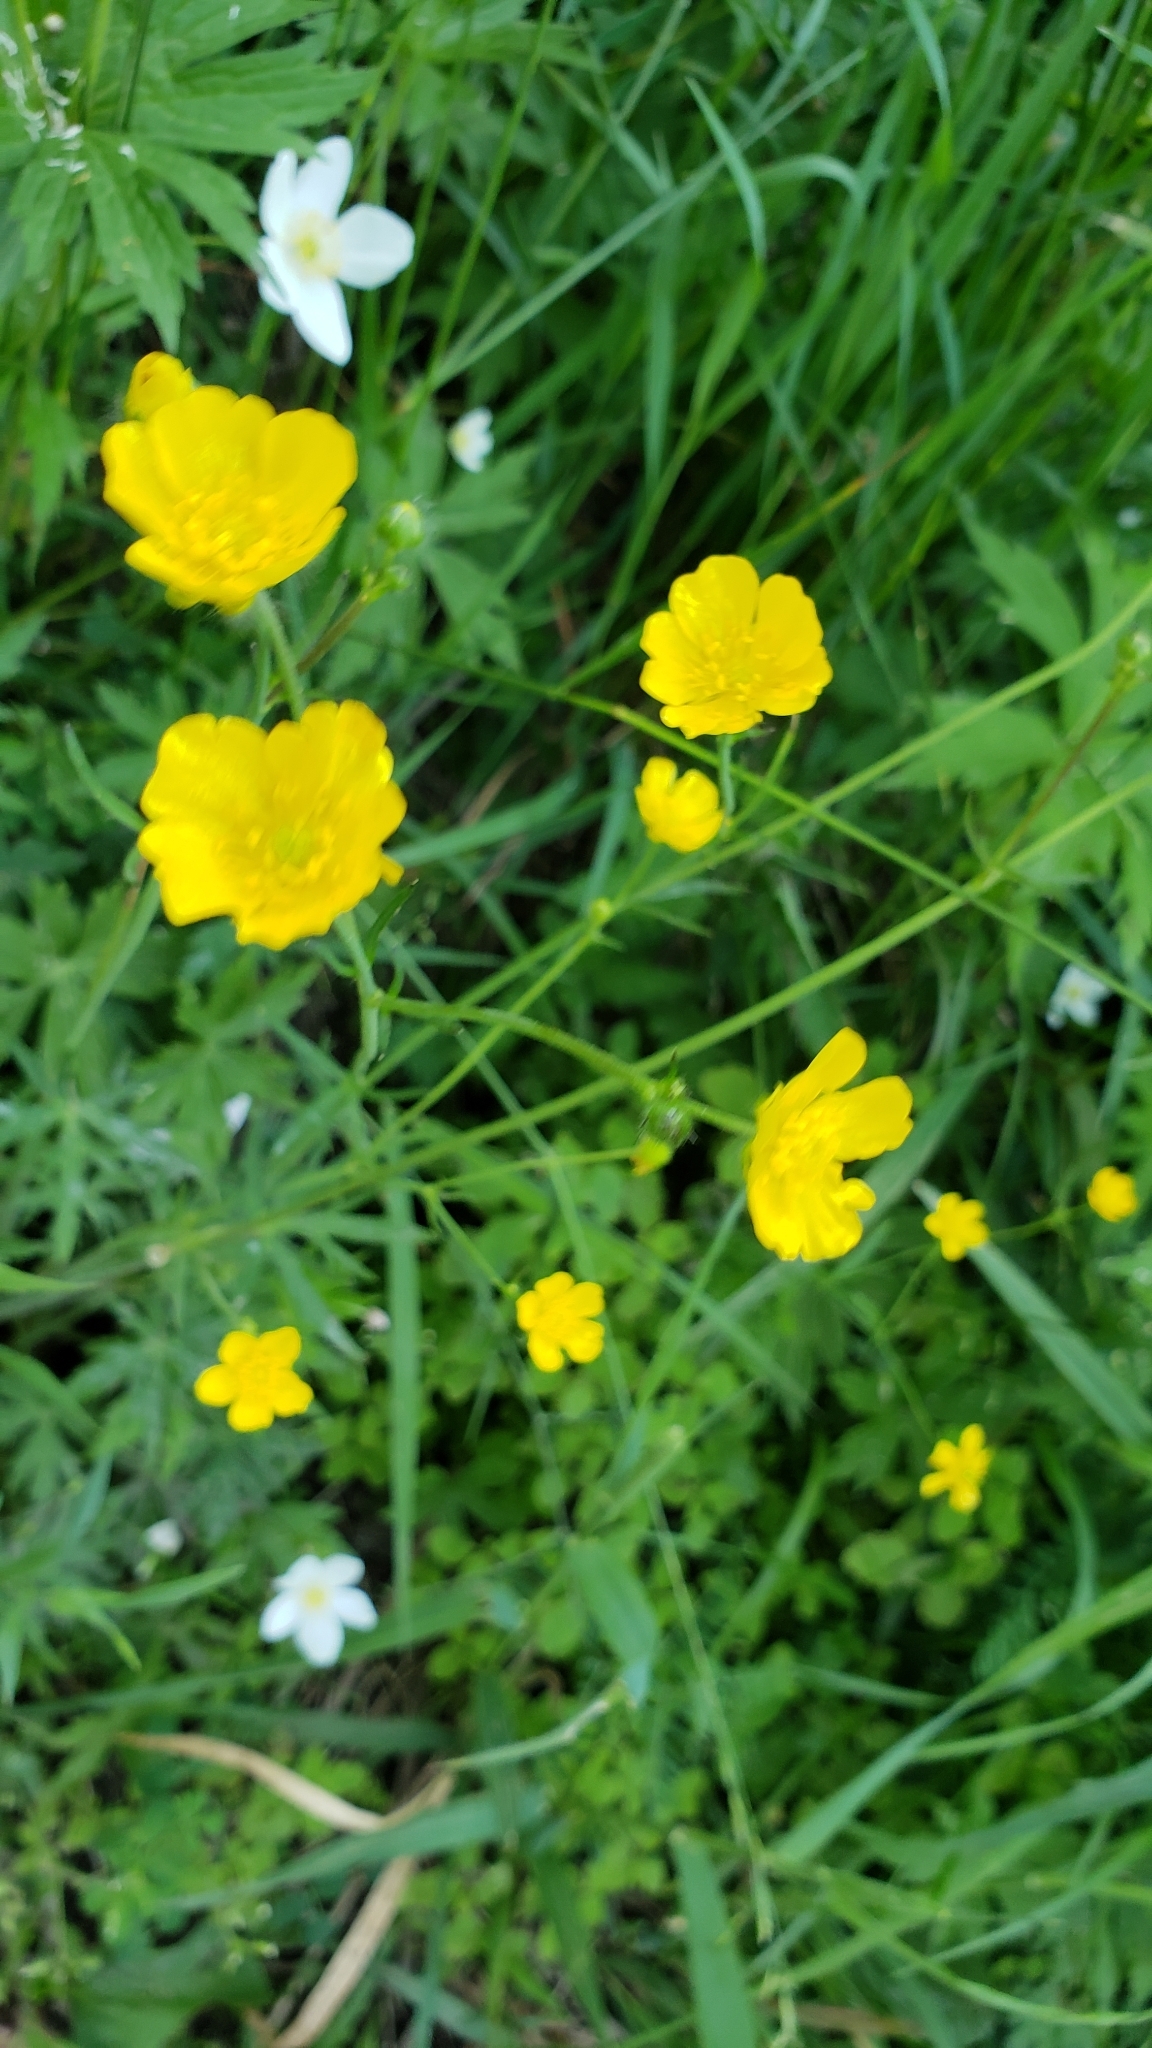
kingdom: Plantae
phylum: Tracheophyta
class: Magnoliopsida
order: Ranunculales
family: Ranunculaceae
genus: Ranunculus
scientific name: Ranunculus acris
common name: Meadow buttercup
